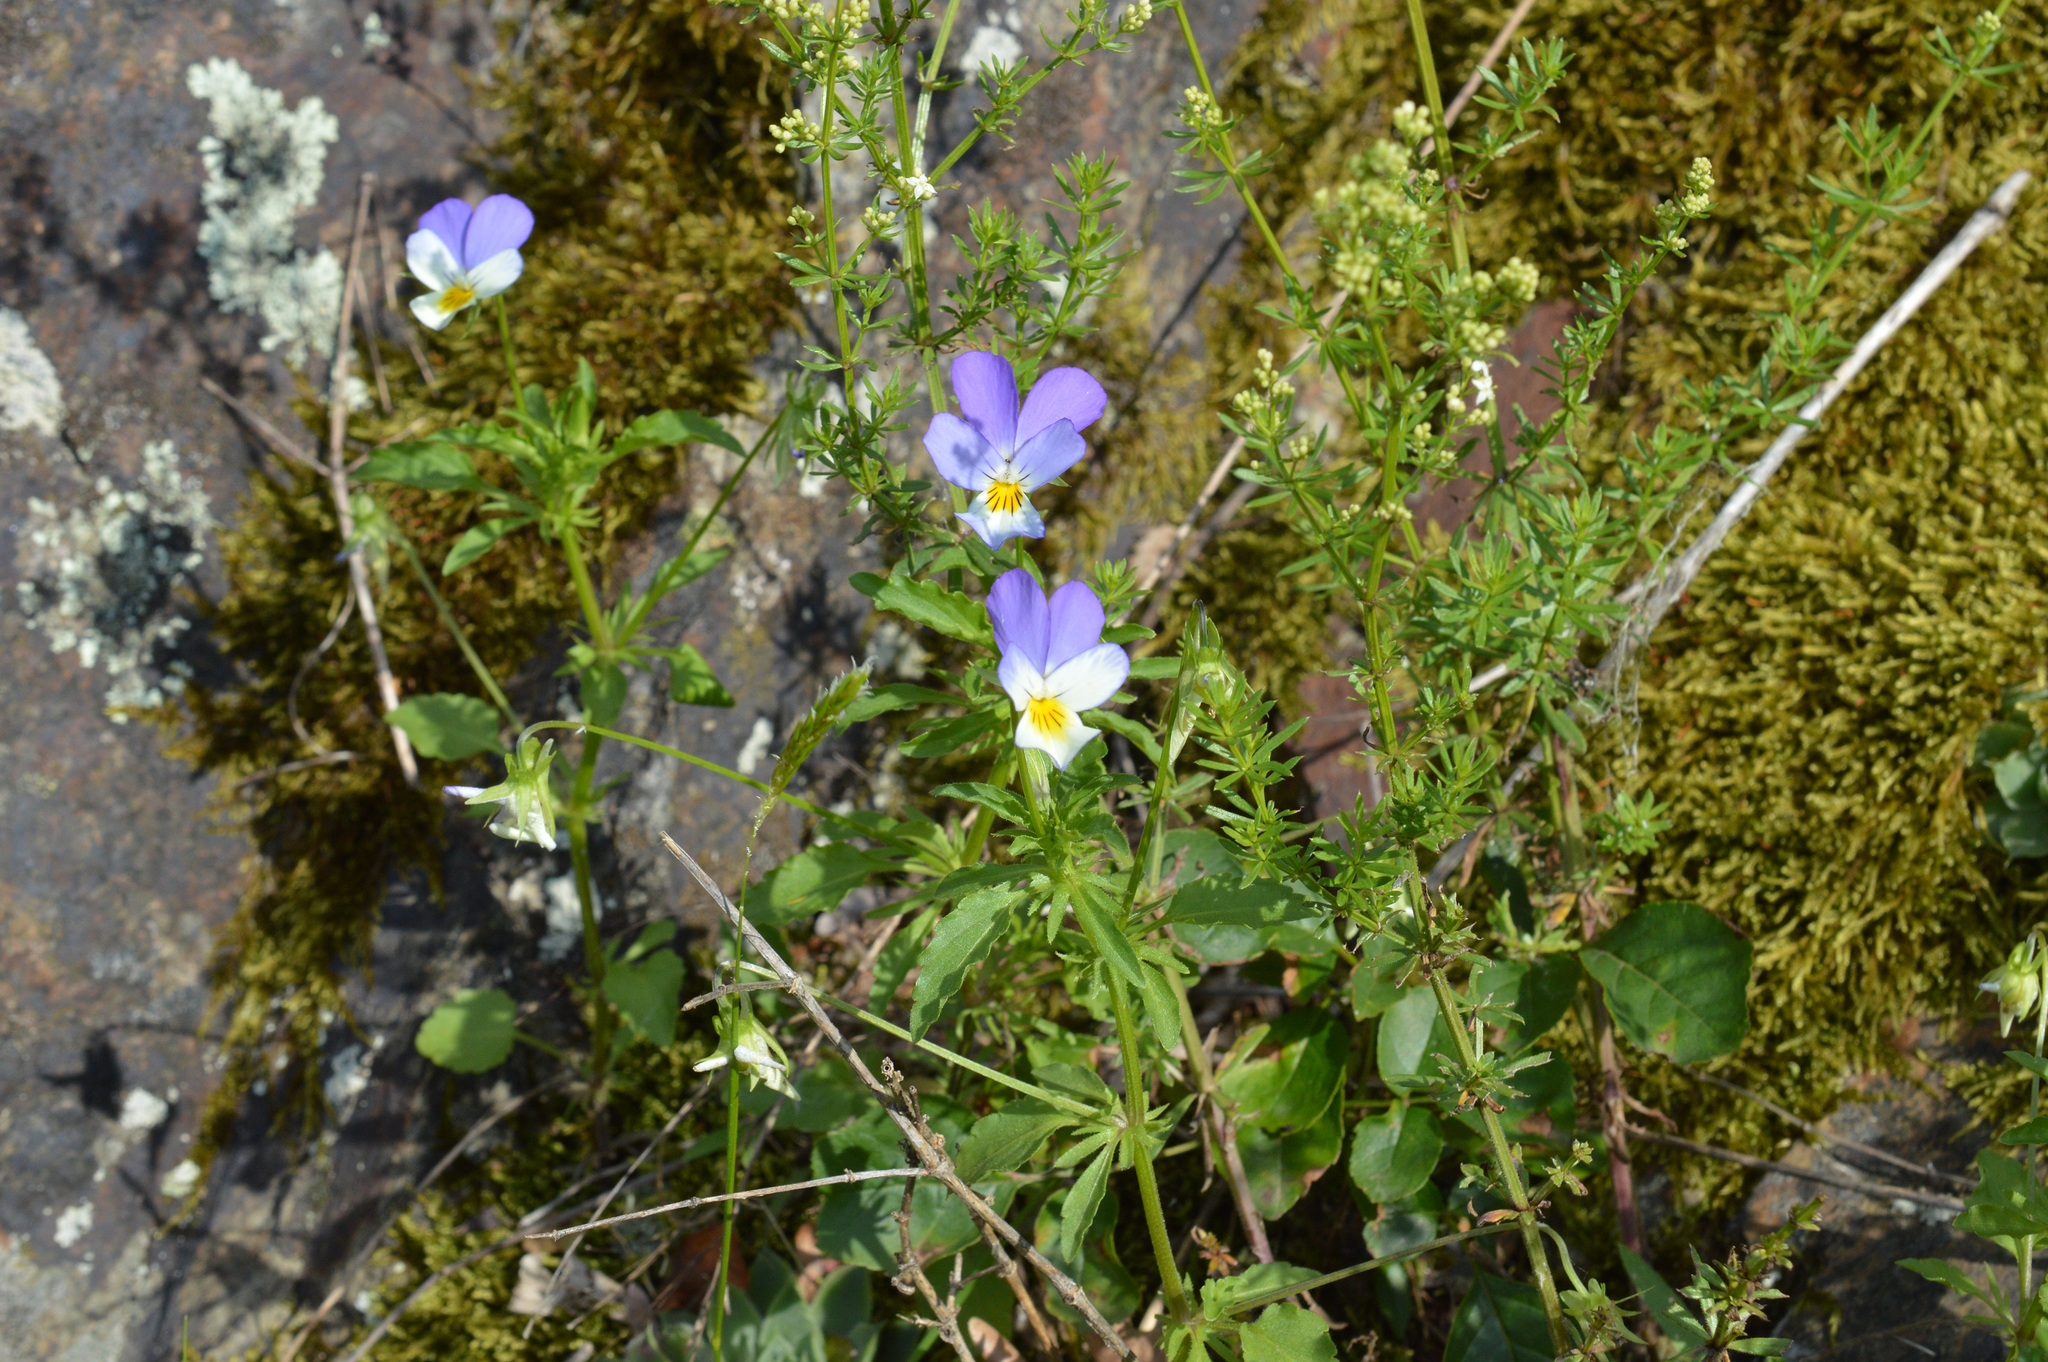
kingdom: Plantae
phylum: Tracheophyta
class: Magnoliopsida
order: Malpighiales
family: Violaceae
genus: Viola
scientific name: Viola tricolor
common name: Pansy
